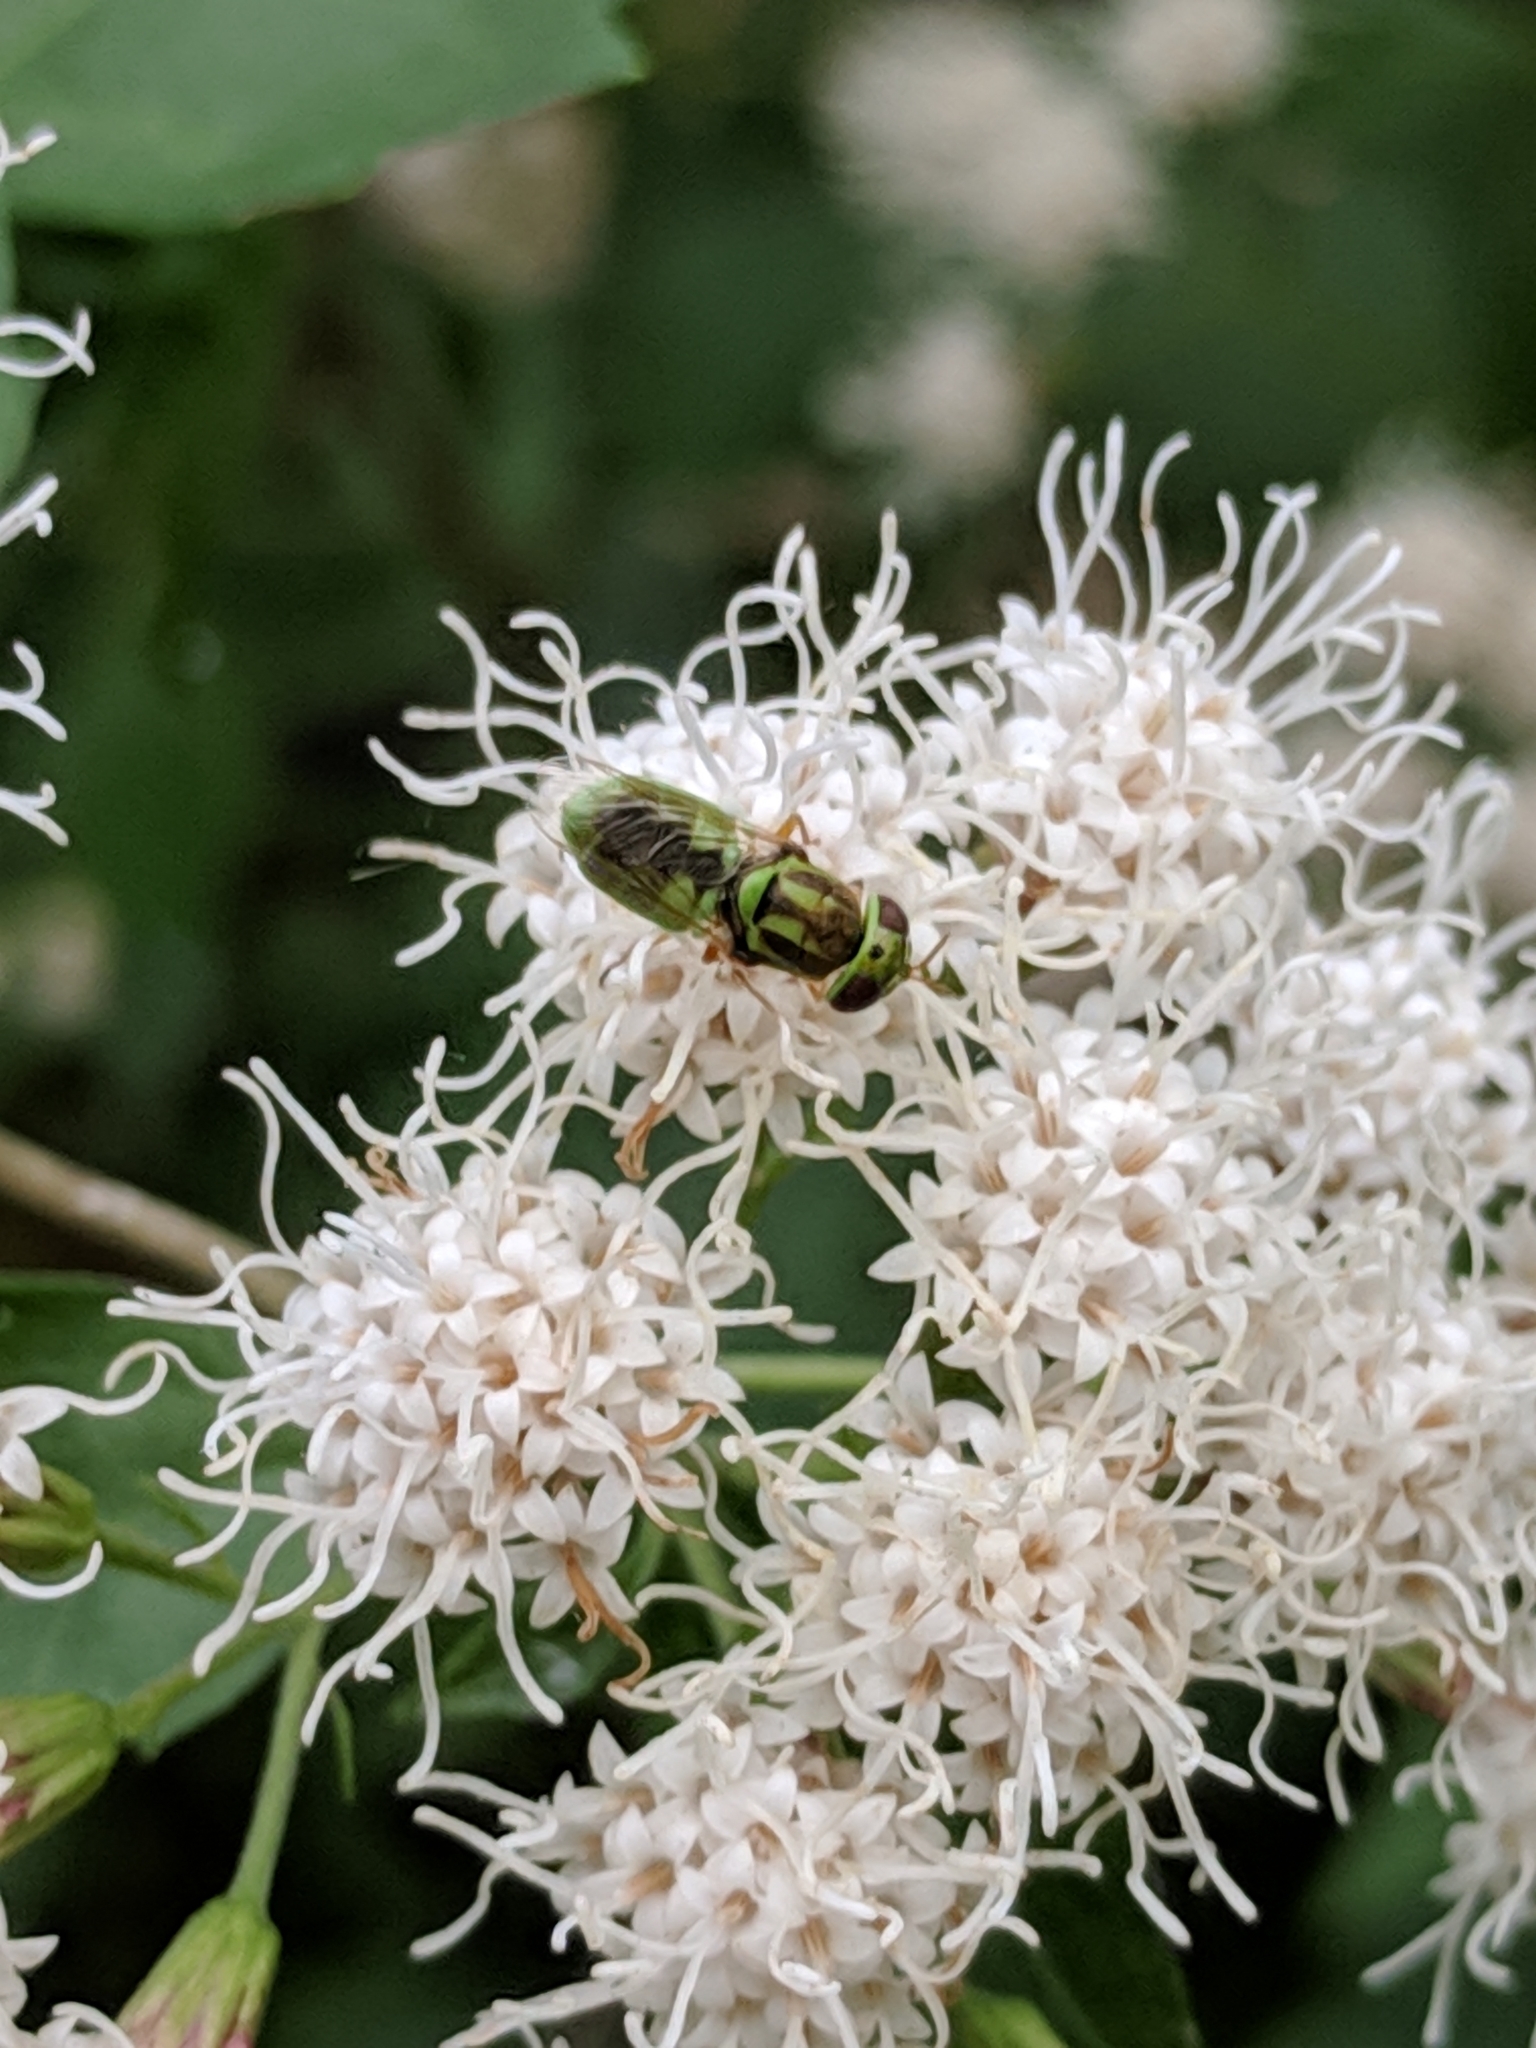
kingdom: Animalia
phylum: Arthropoda
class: Insecta
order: Diptera
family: Stratiomyidae
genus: Hedriodiscus
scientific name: Hedriodiscus trivittatus
